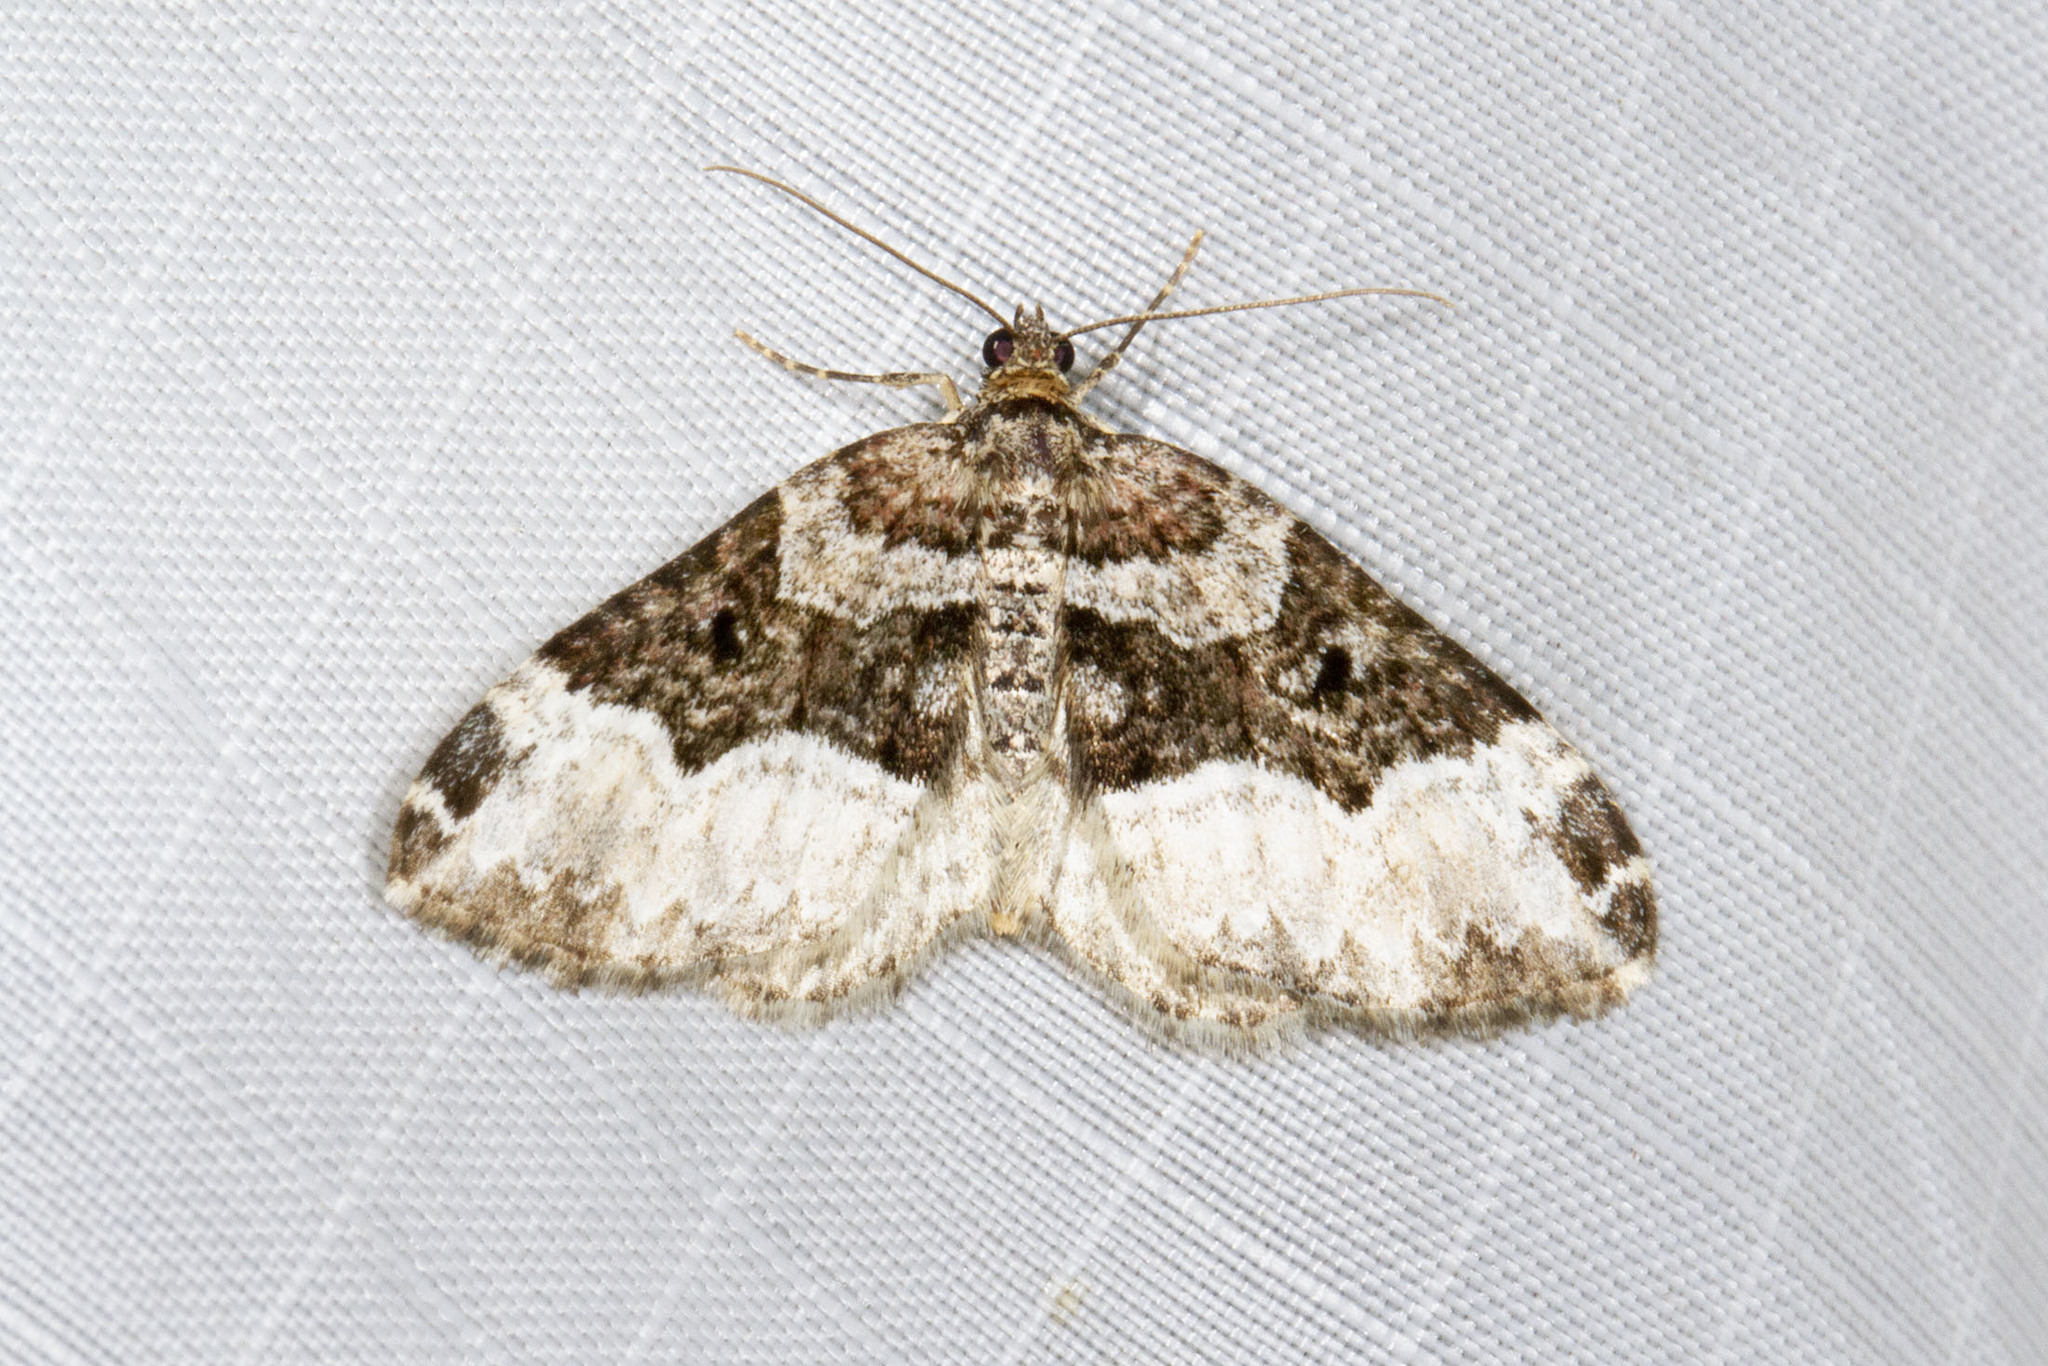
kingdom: Animalia
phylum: Arthropoda
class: Insecta
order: Lepidoptera
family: Geometridae
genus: Euphyia
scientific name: Euphyia intermediata
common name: Sharp-angled carpet
